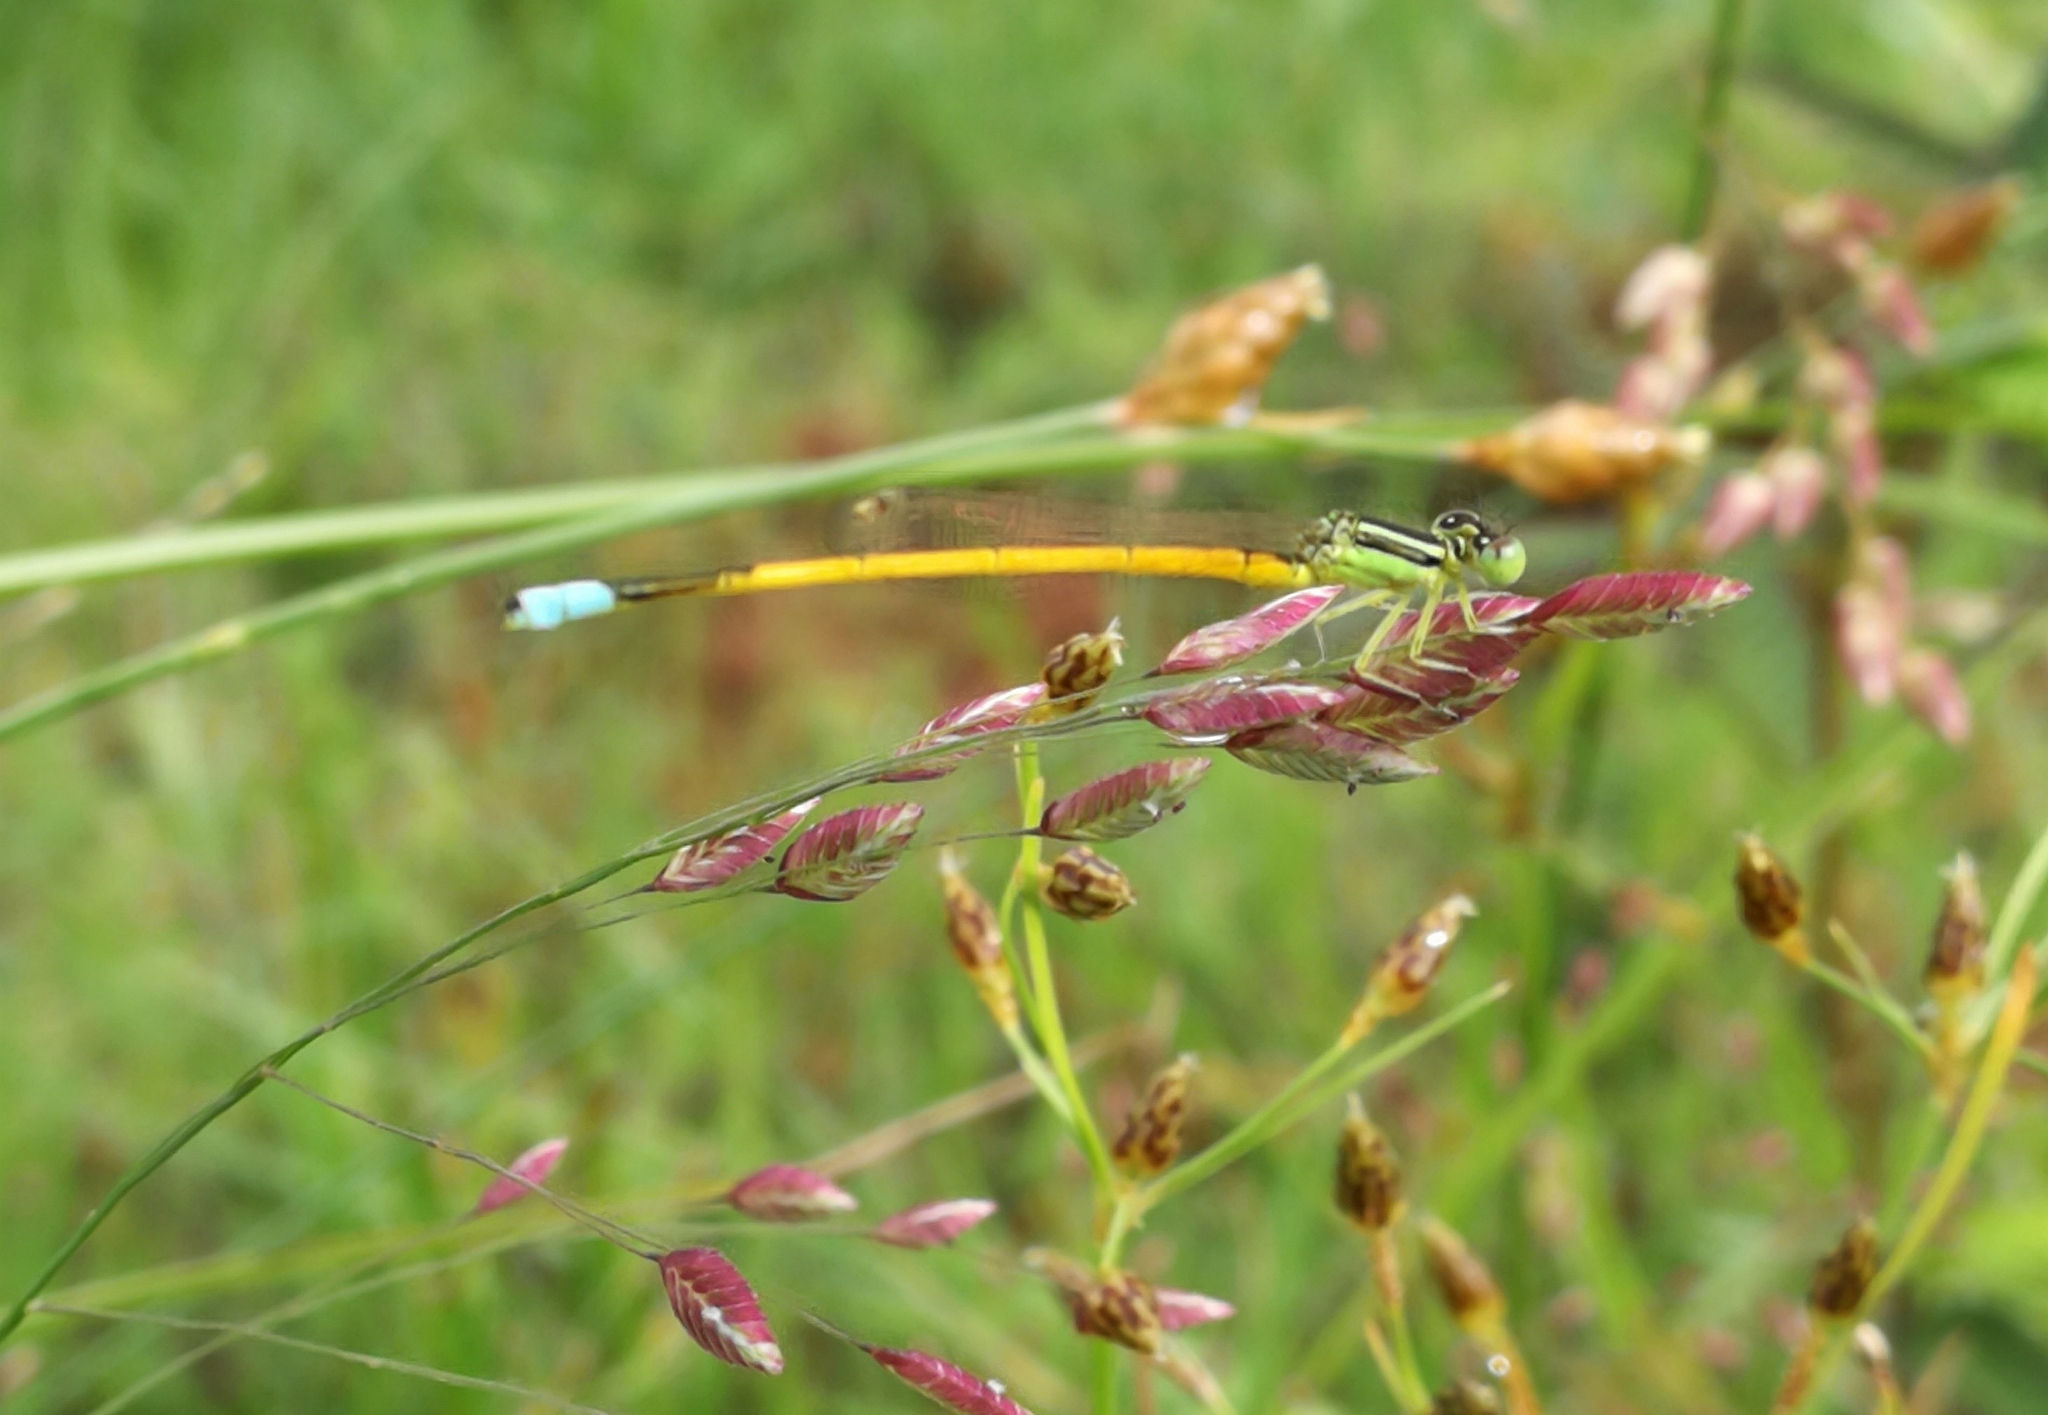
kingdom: Animalia
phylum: Arthropoda
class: Insecta
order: Odonata
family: Coenagrionidae
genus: Ischnura
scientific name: Ischnura rubilio
